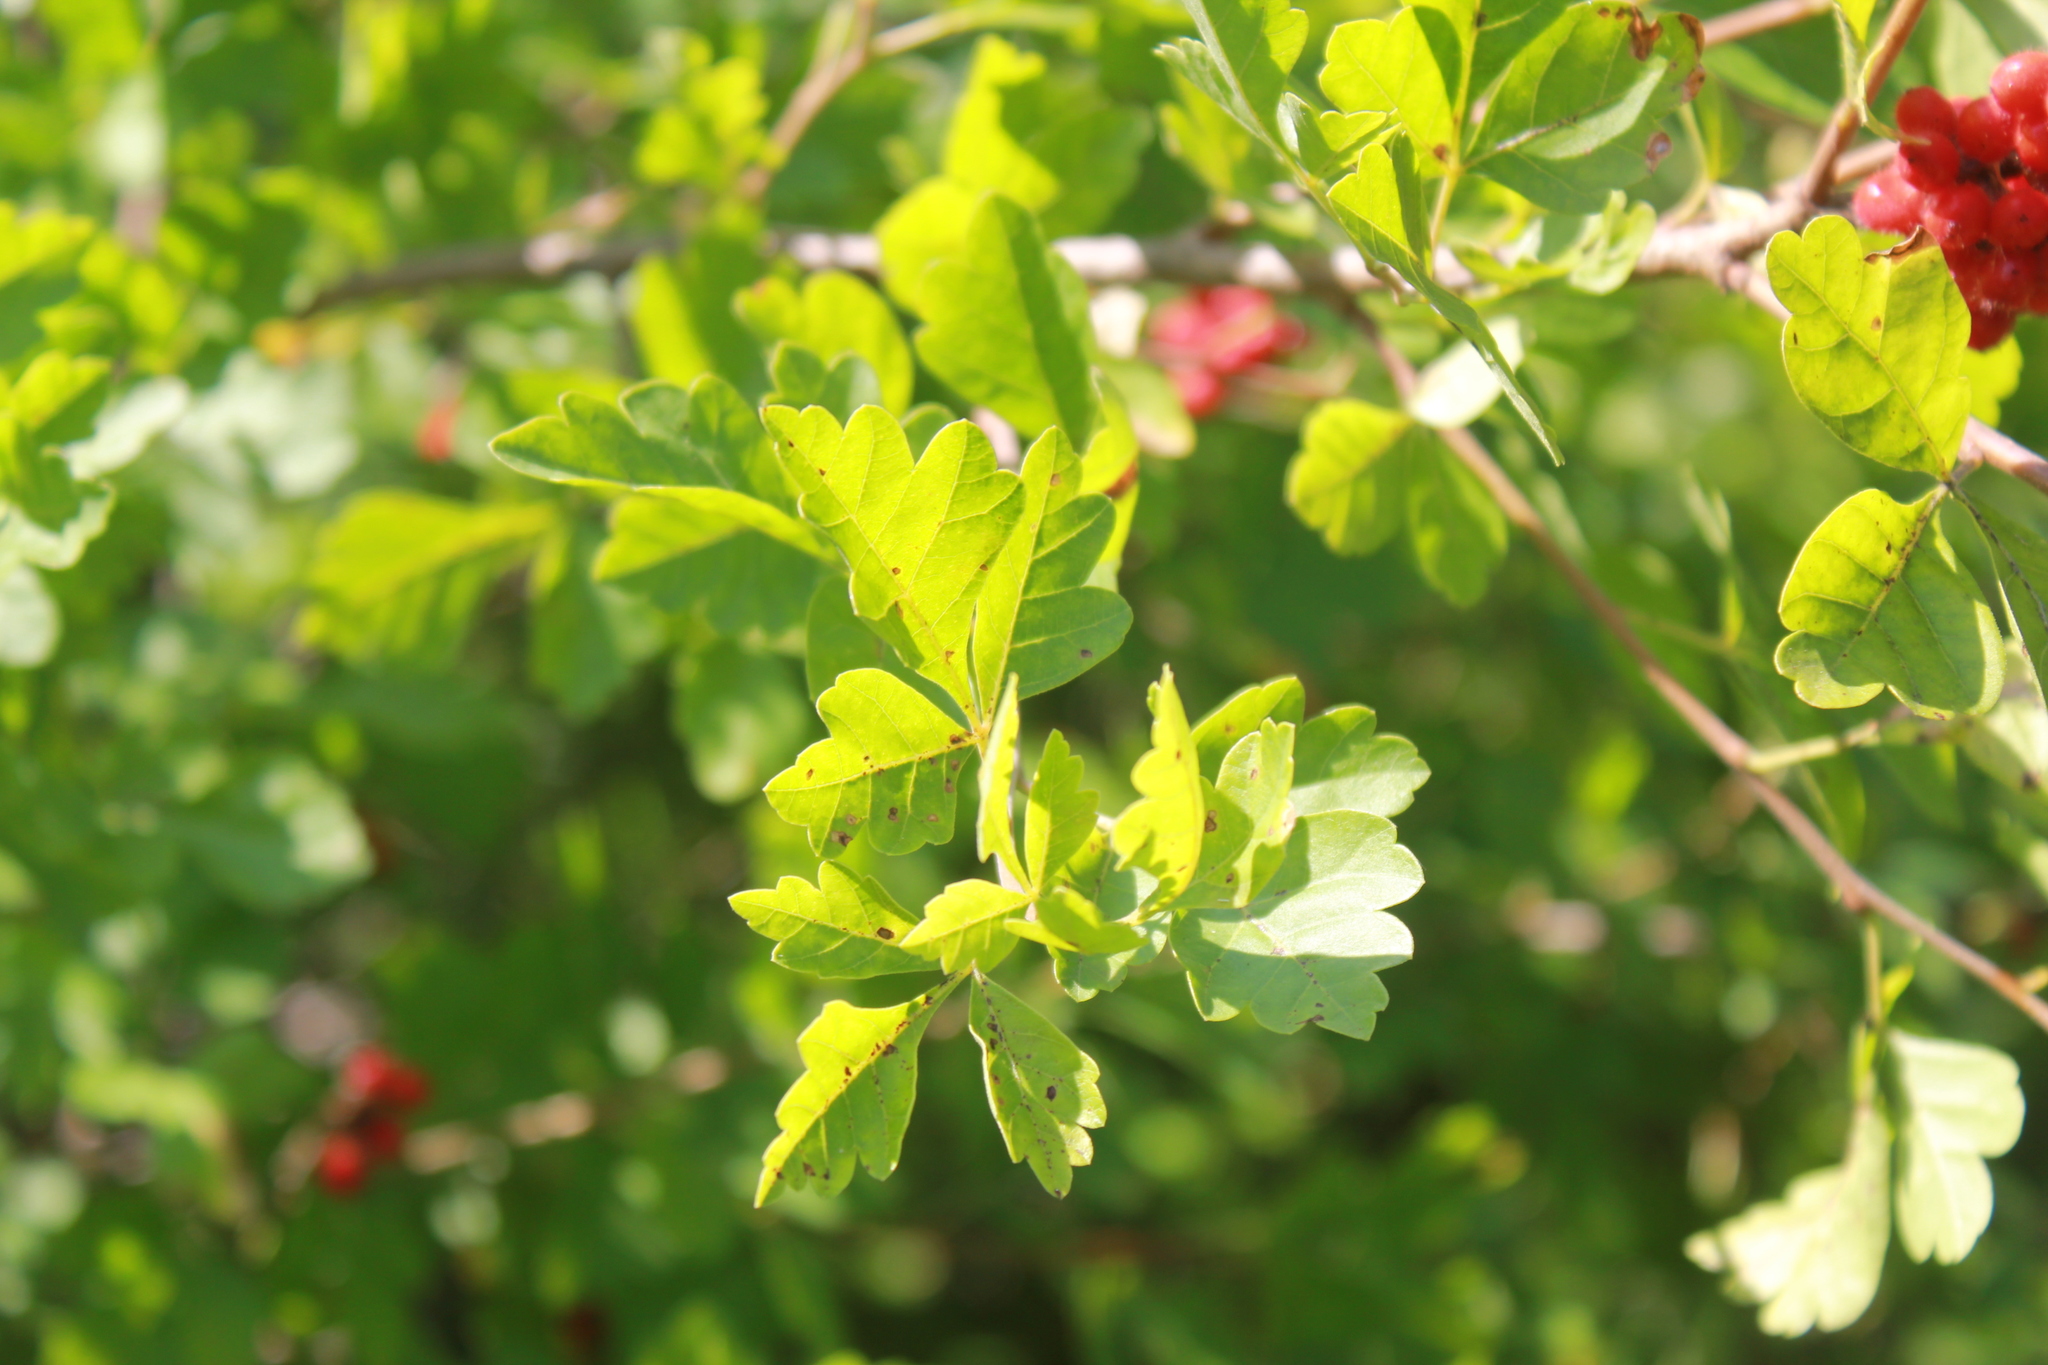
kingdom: Plantae
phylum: Tracheophyta
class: Magnoliopsida
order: Sapindales
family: Anacardiaceae
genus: Rhus
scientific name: Rhus aromatica
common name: Aromatic sumac
